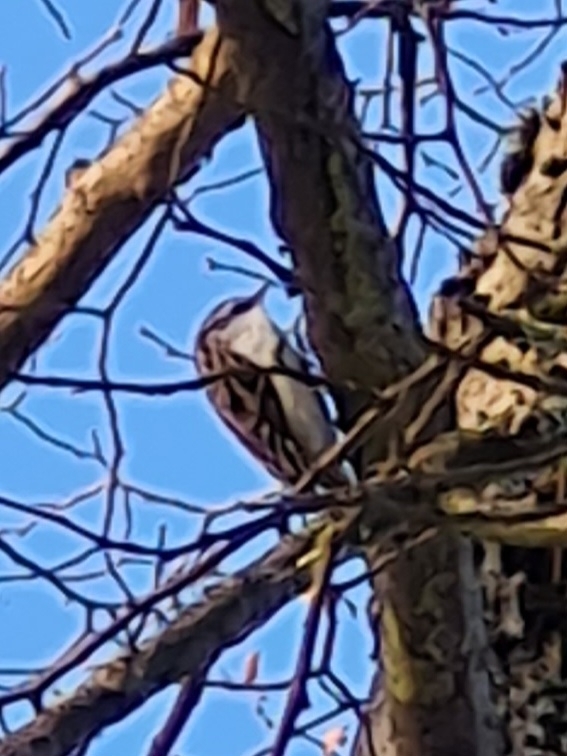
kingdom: Animalia
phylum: Chordata
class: Aves
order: Passeriformes
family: Certhiidae
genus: Certhia
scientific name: Certhia familiaris
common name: Eurasian treecreeper
